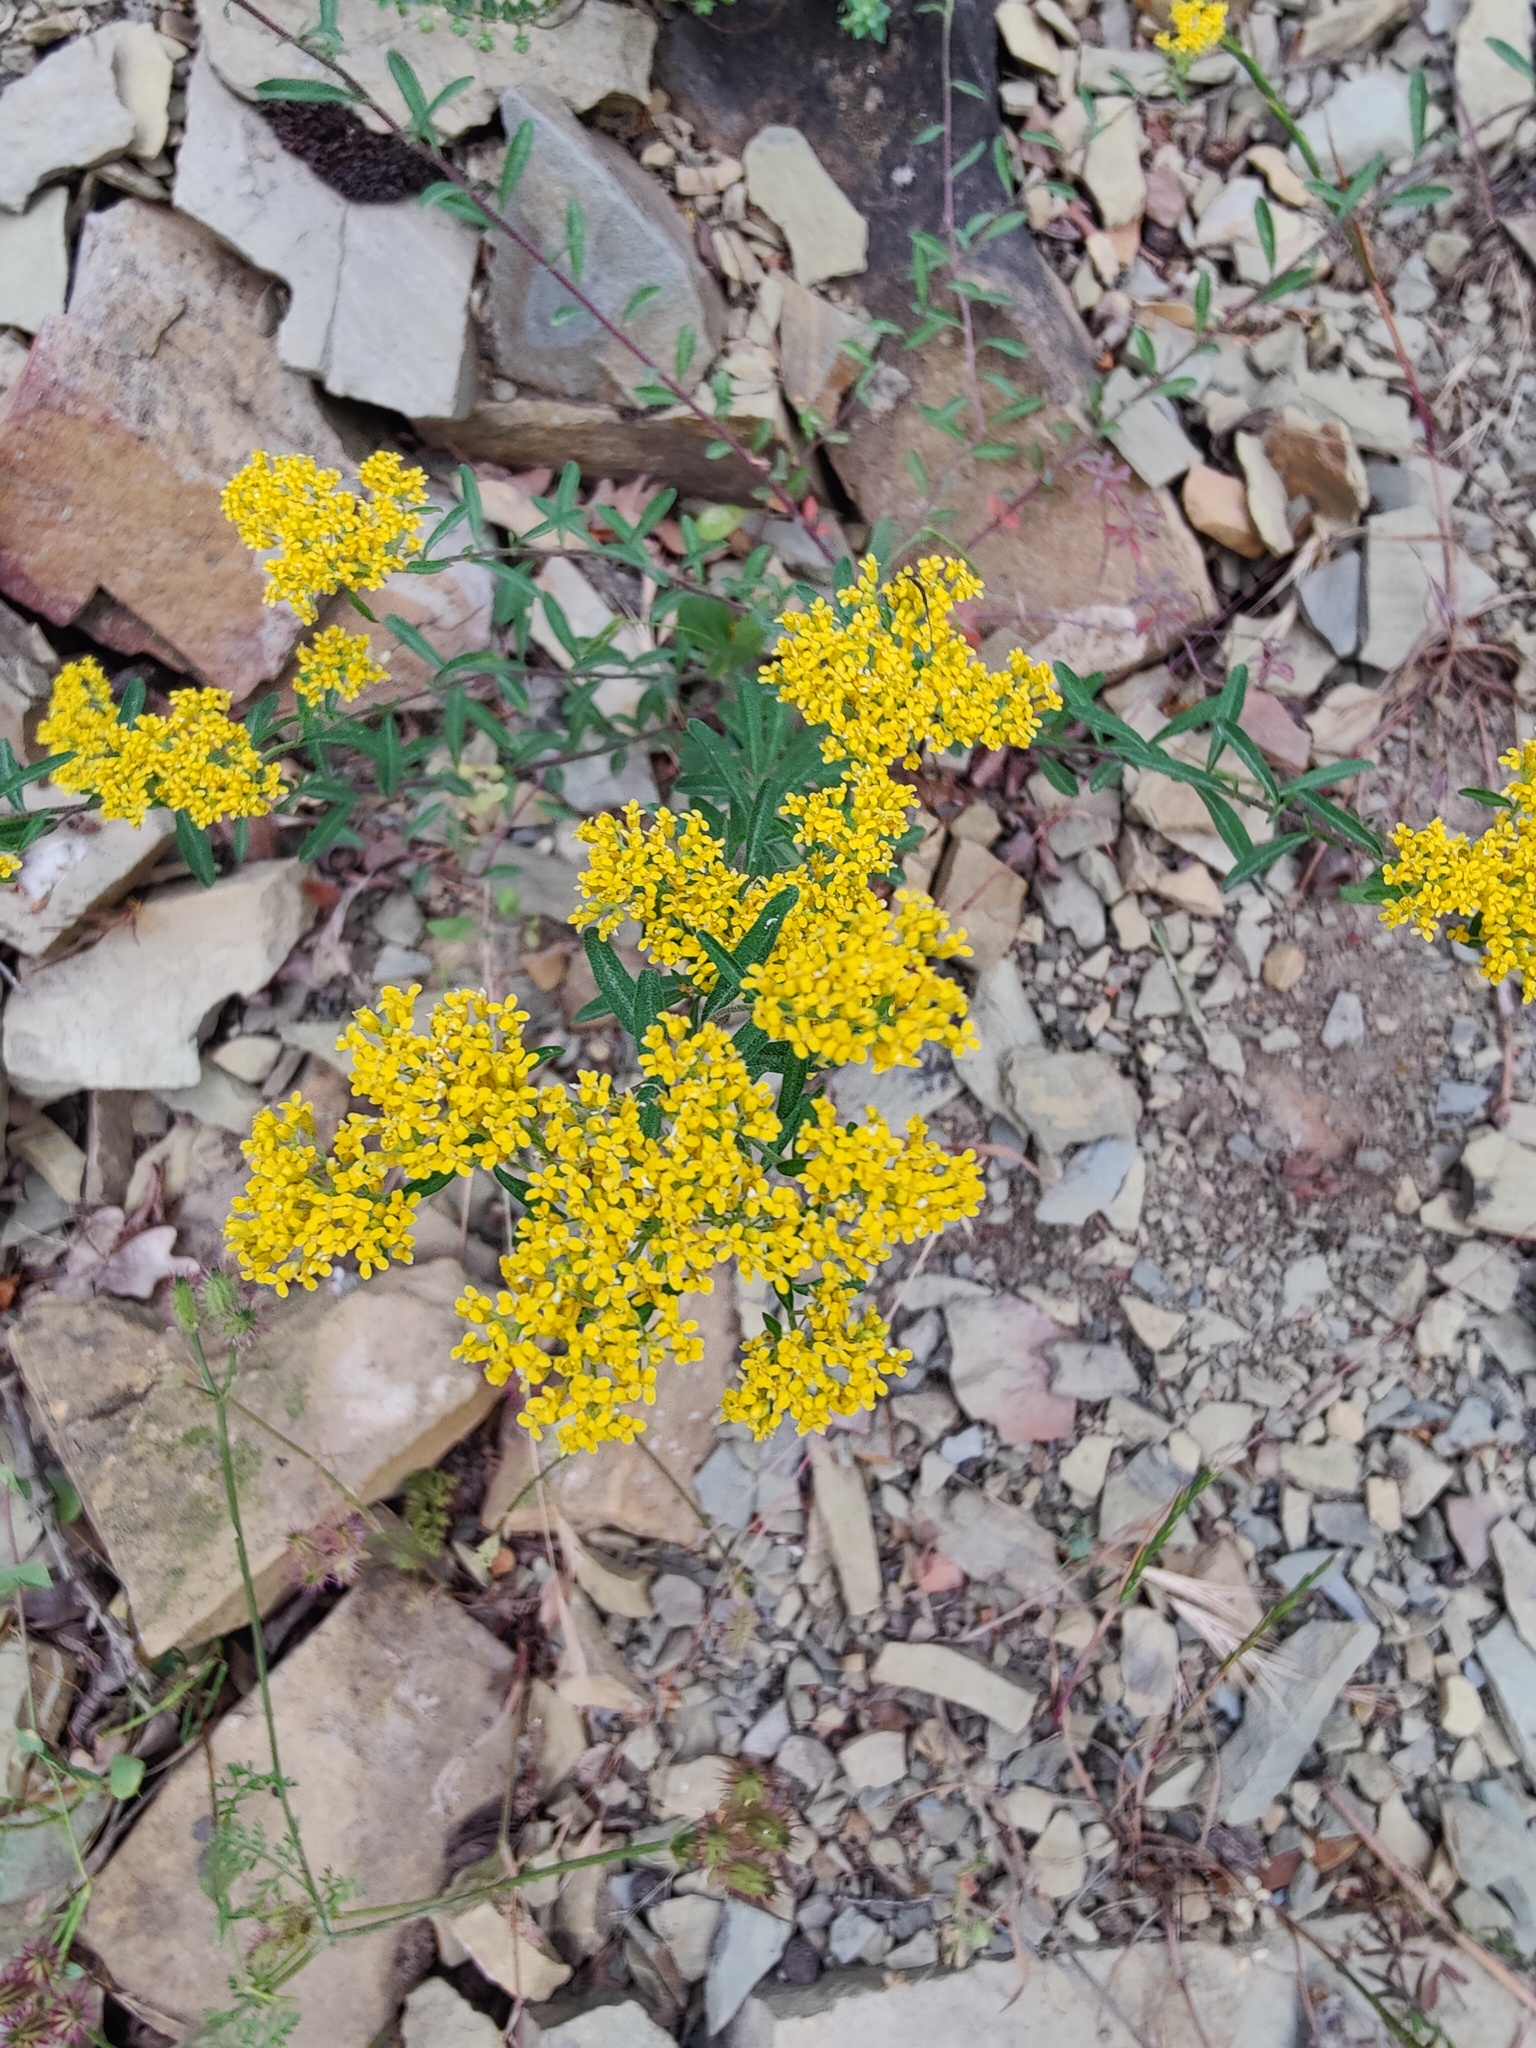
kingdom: Plantae
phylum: Tracheophyta
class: Magnoliopsida
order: Brassicales
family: Brassicaceae
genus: Odontarrhena
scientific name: Odontarrhena muralis
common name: Rock alyssum
